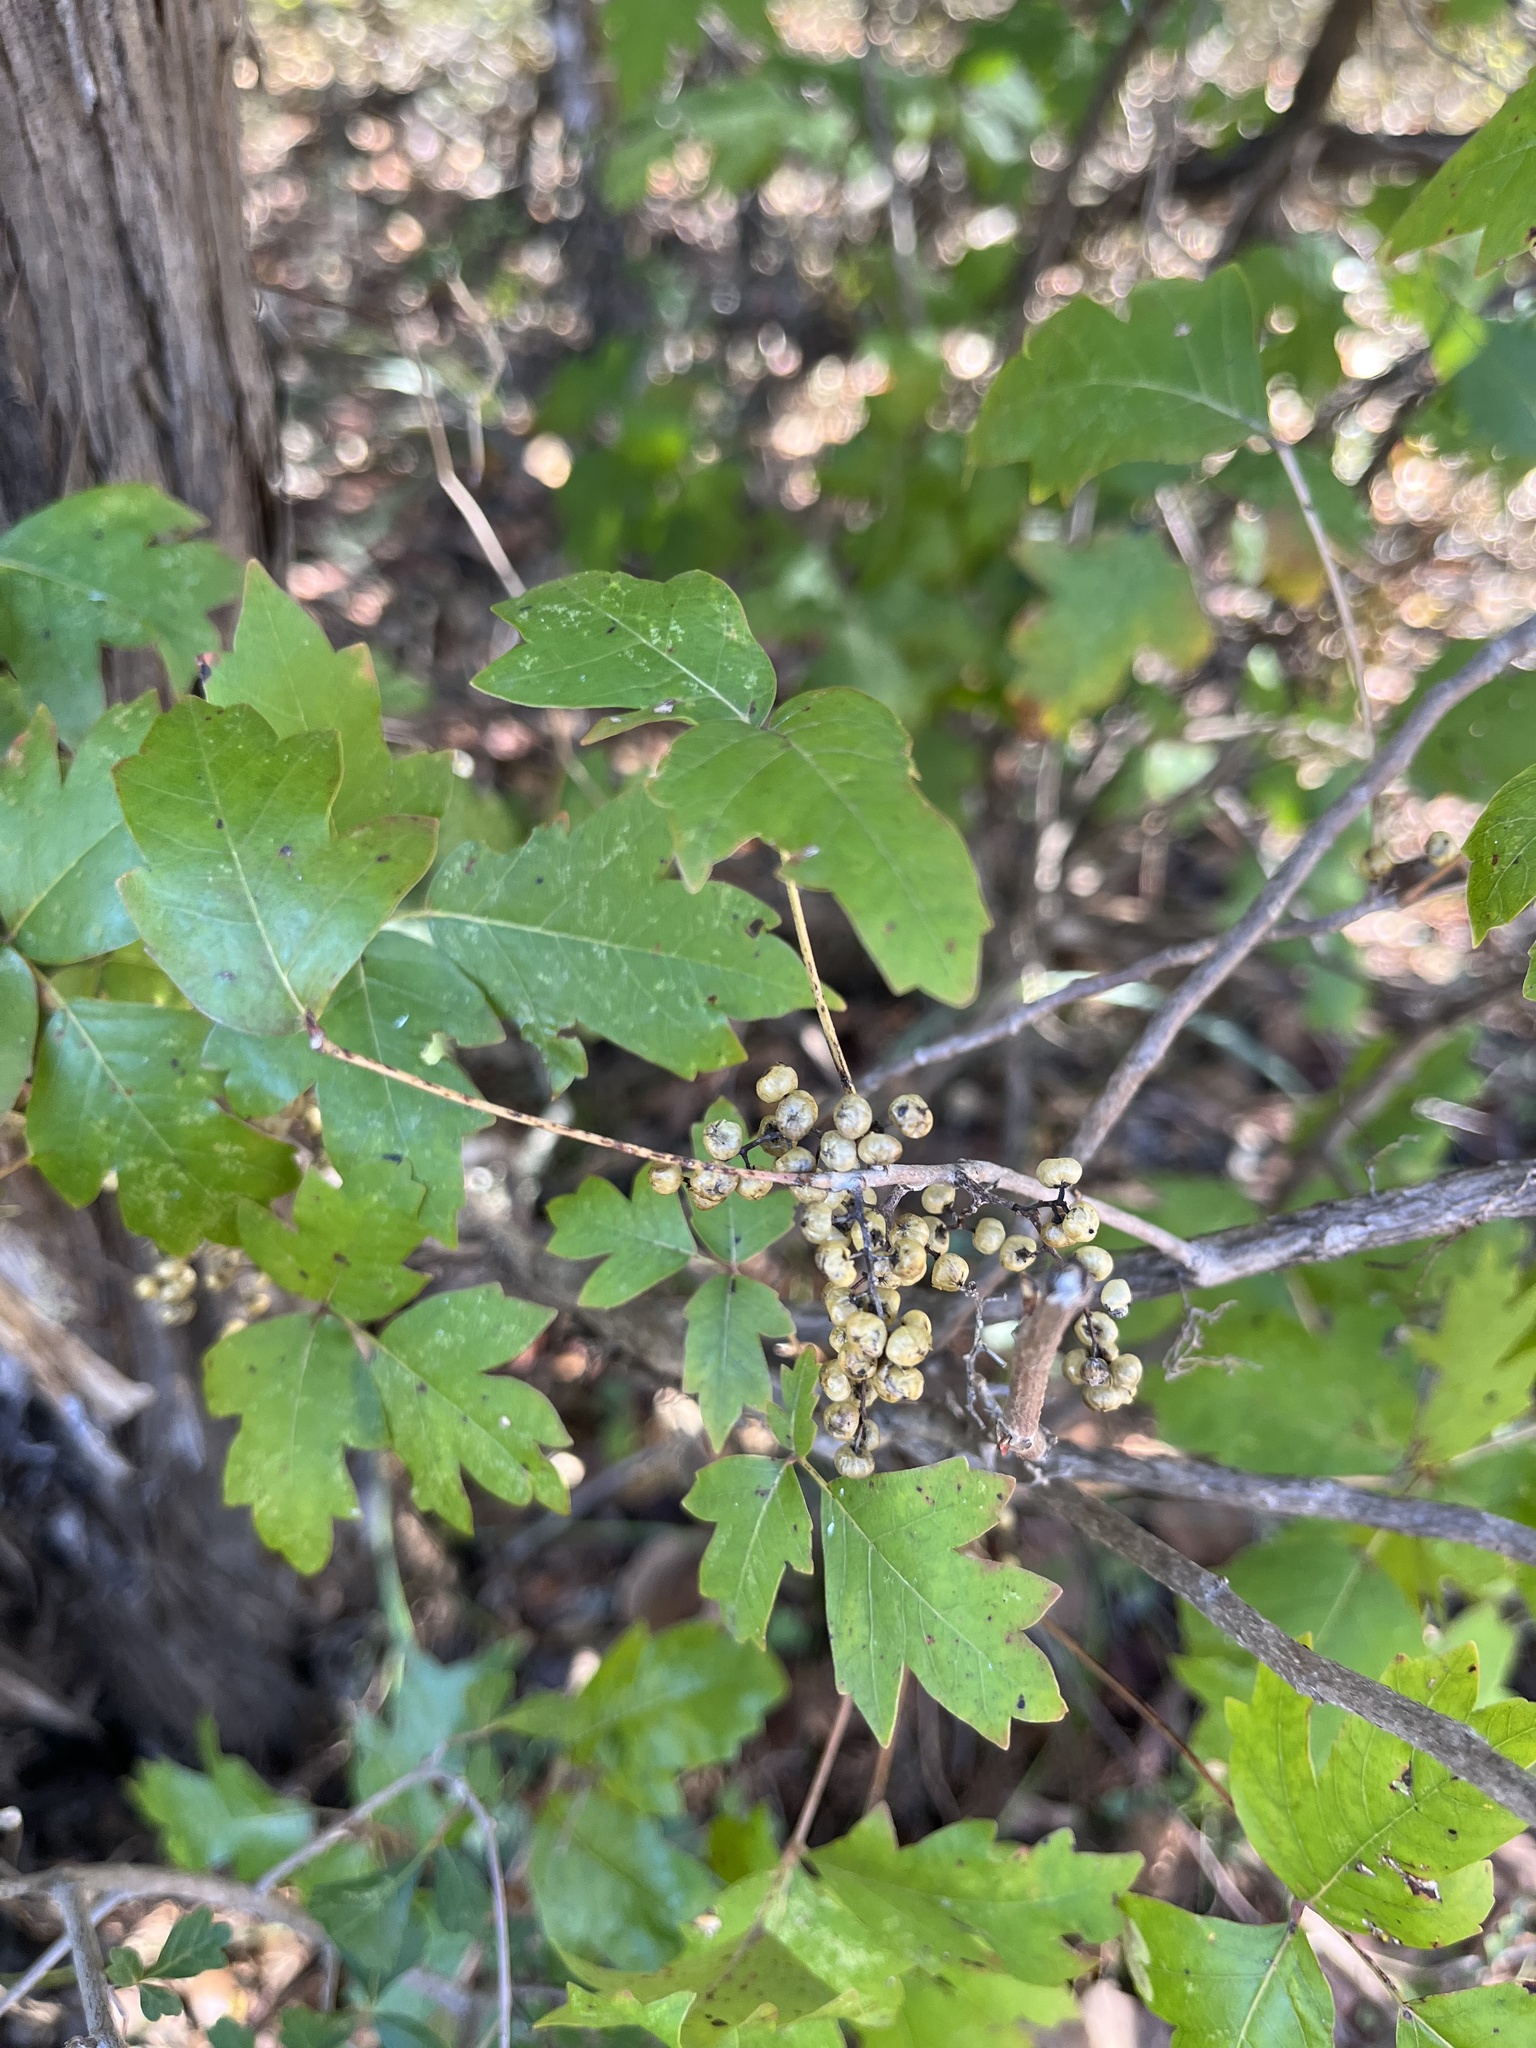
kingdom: Plantae
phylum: Tracheophyta
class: Magnoliopsida
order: Sapindales
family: Anacardiaceae
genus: Toxicodendron
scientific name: Toxicodendron radicans
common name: Poison ivy
